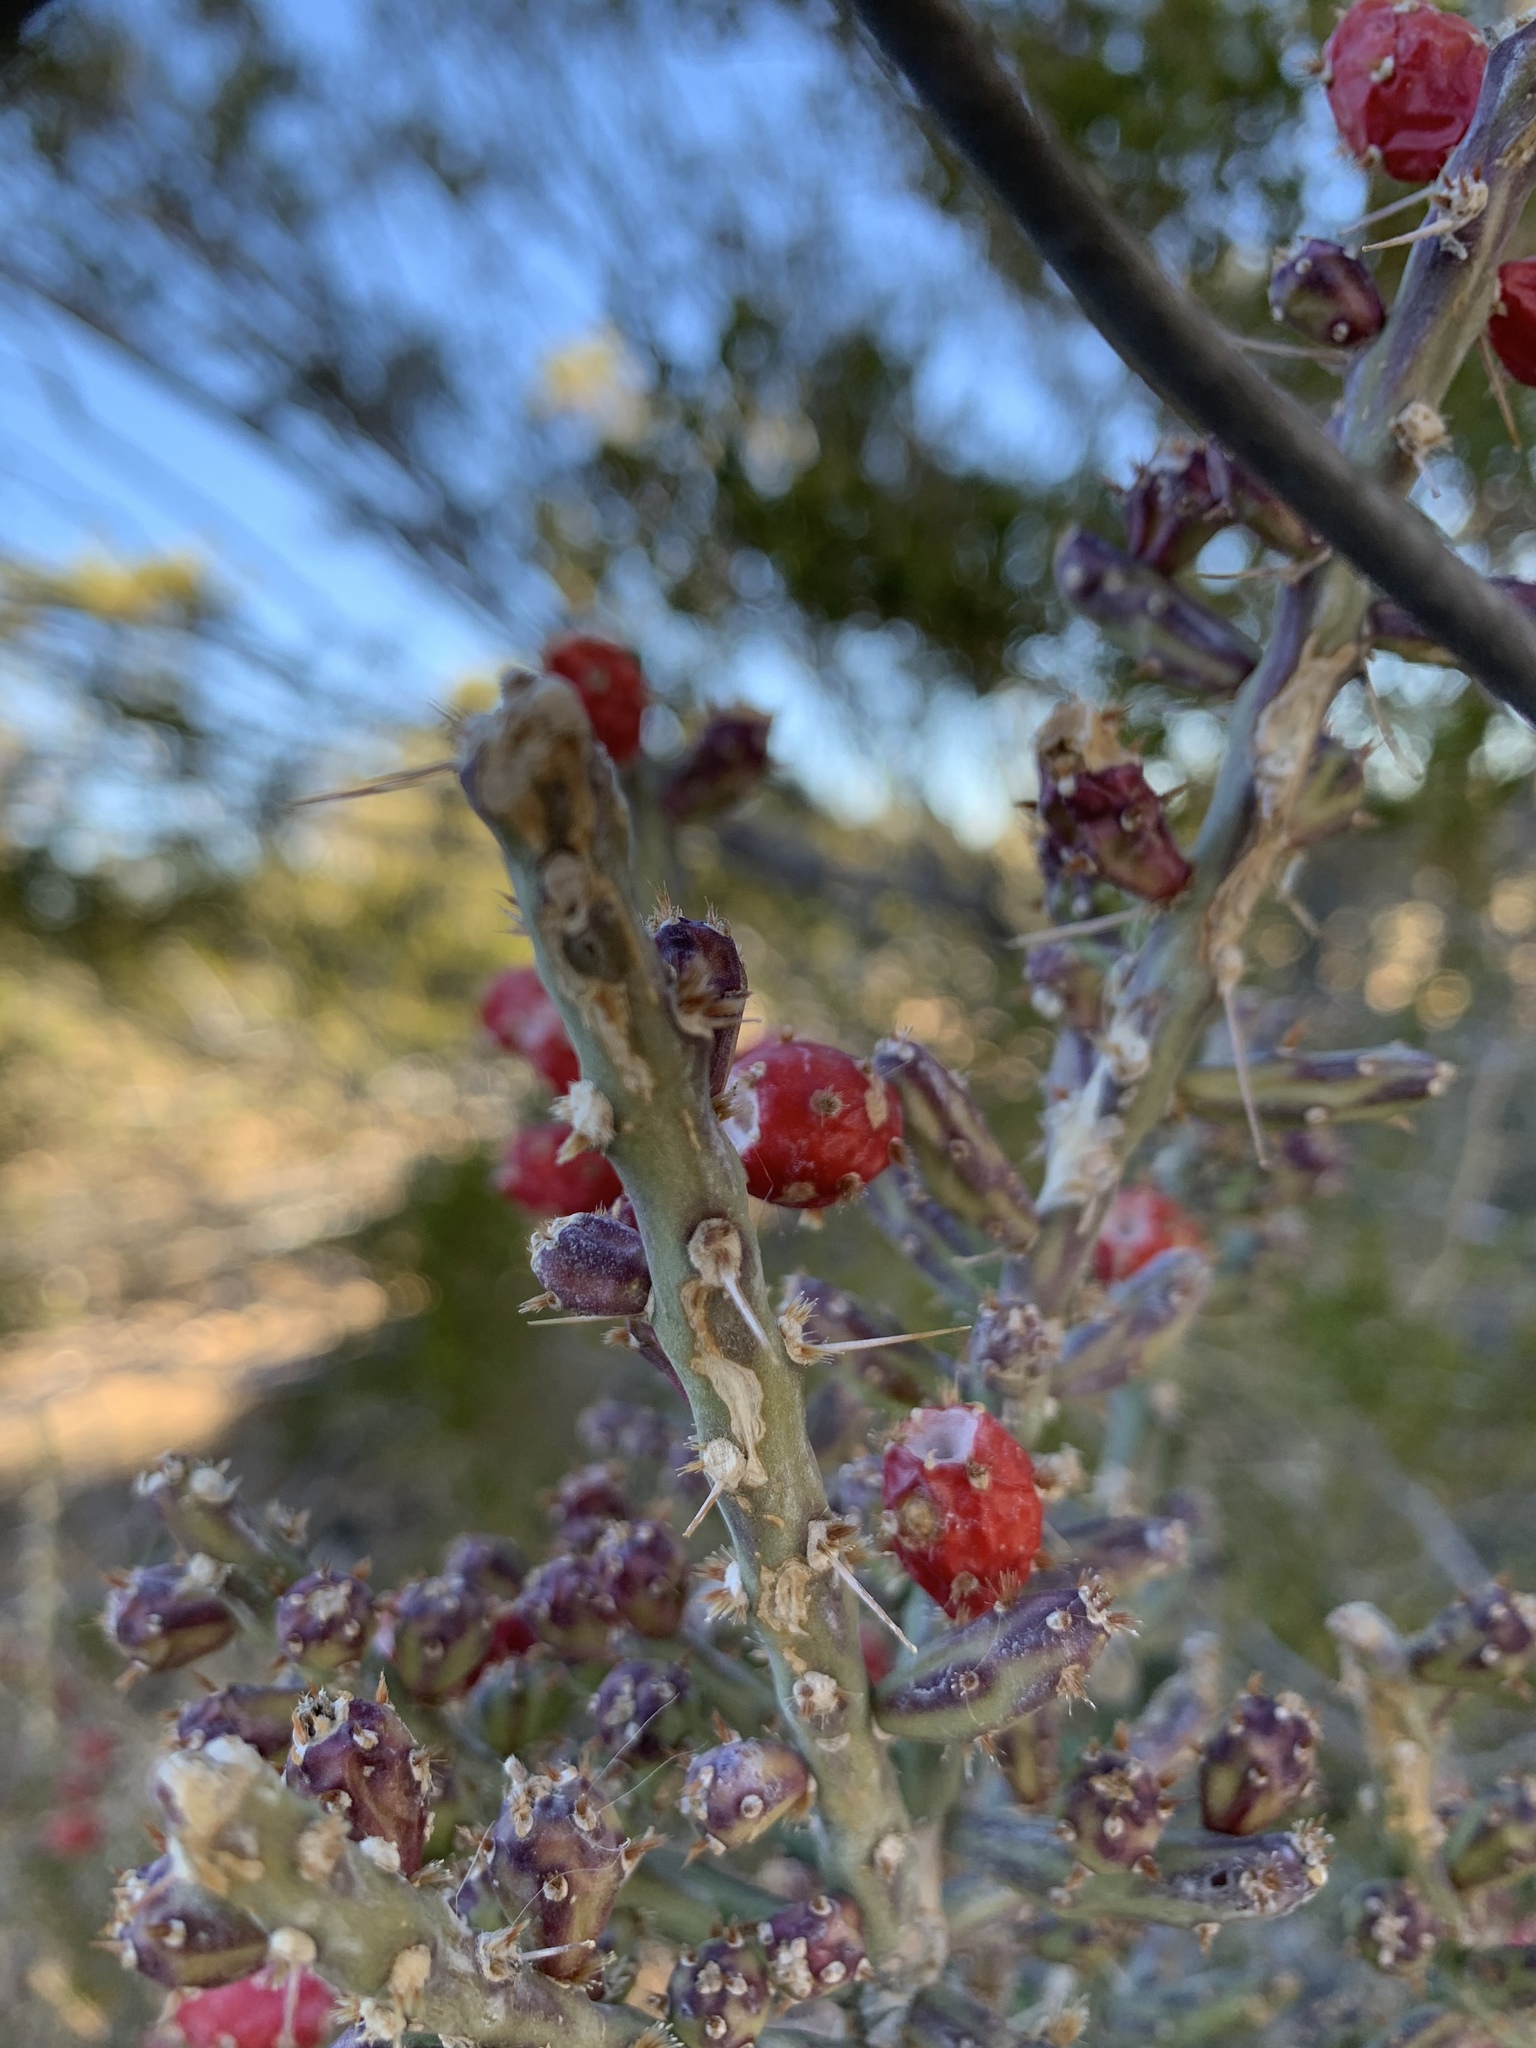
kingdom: Plantae
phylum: Tracheophyta
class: Magnoliopsida
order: Caryophyllales
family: Cactaceae
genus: Cylindropuntia
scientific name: Cylindropuntia leptocaulis
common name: Christmas cactus
